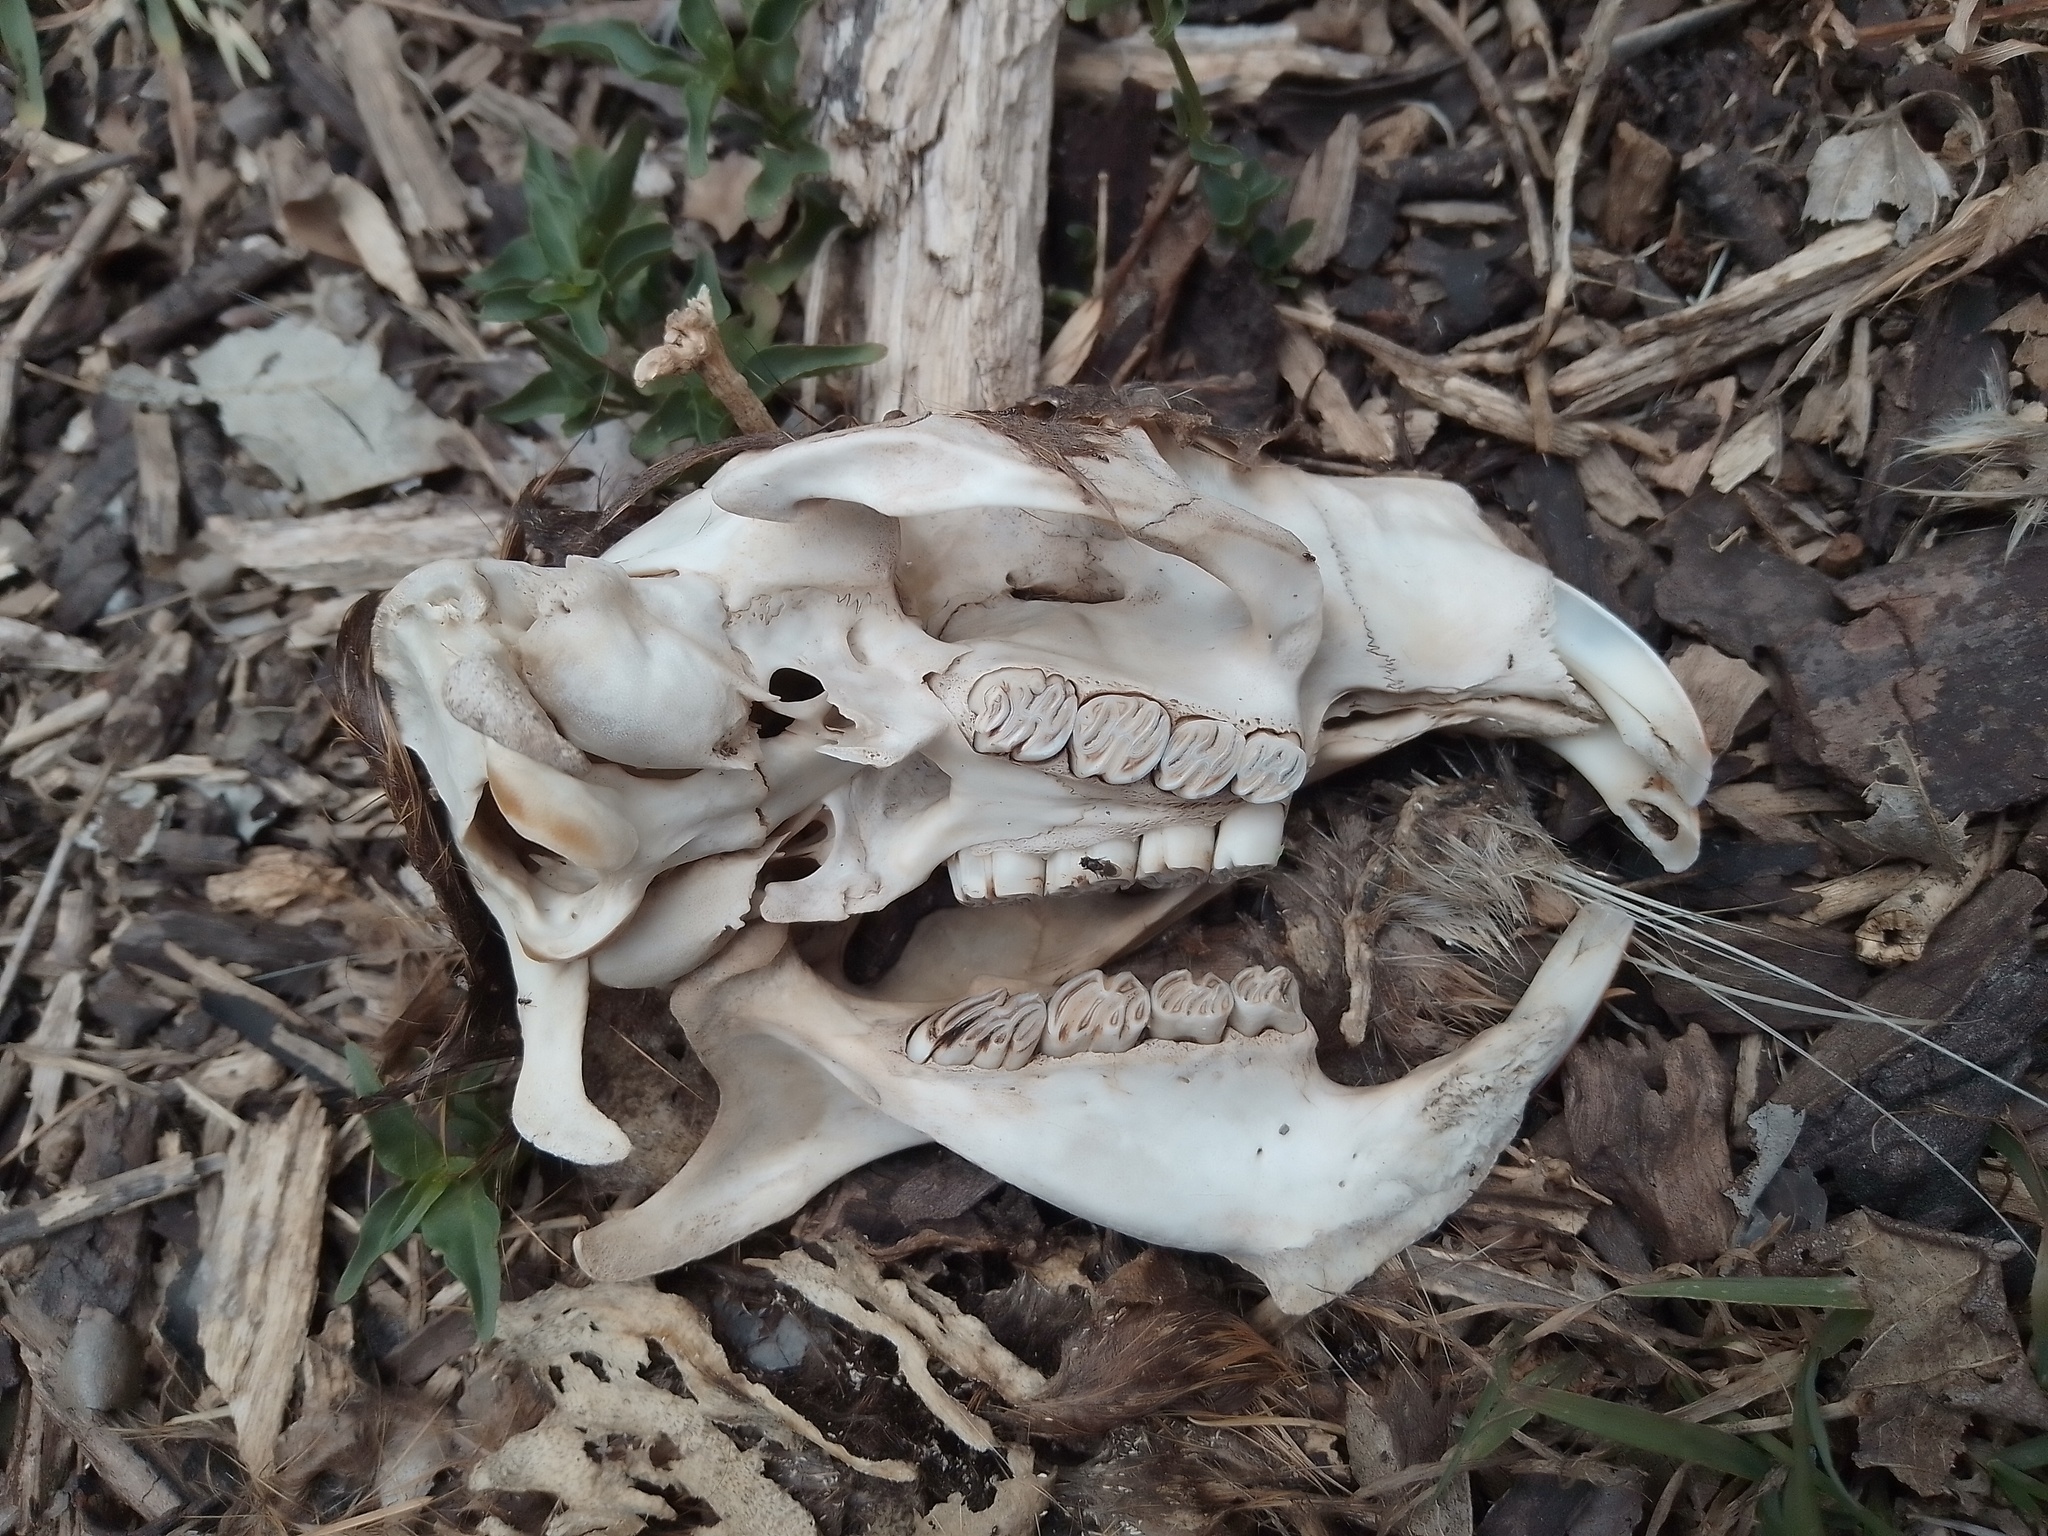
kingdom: Animalia
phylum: Chordata
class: Mammalia
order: Rodentia
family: Myocastoridae
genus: Myocastor
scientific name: Myocastor coypus
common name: Coypu
